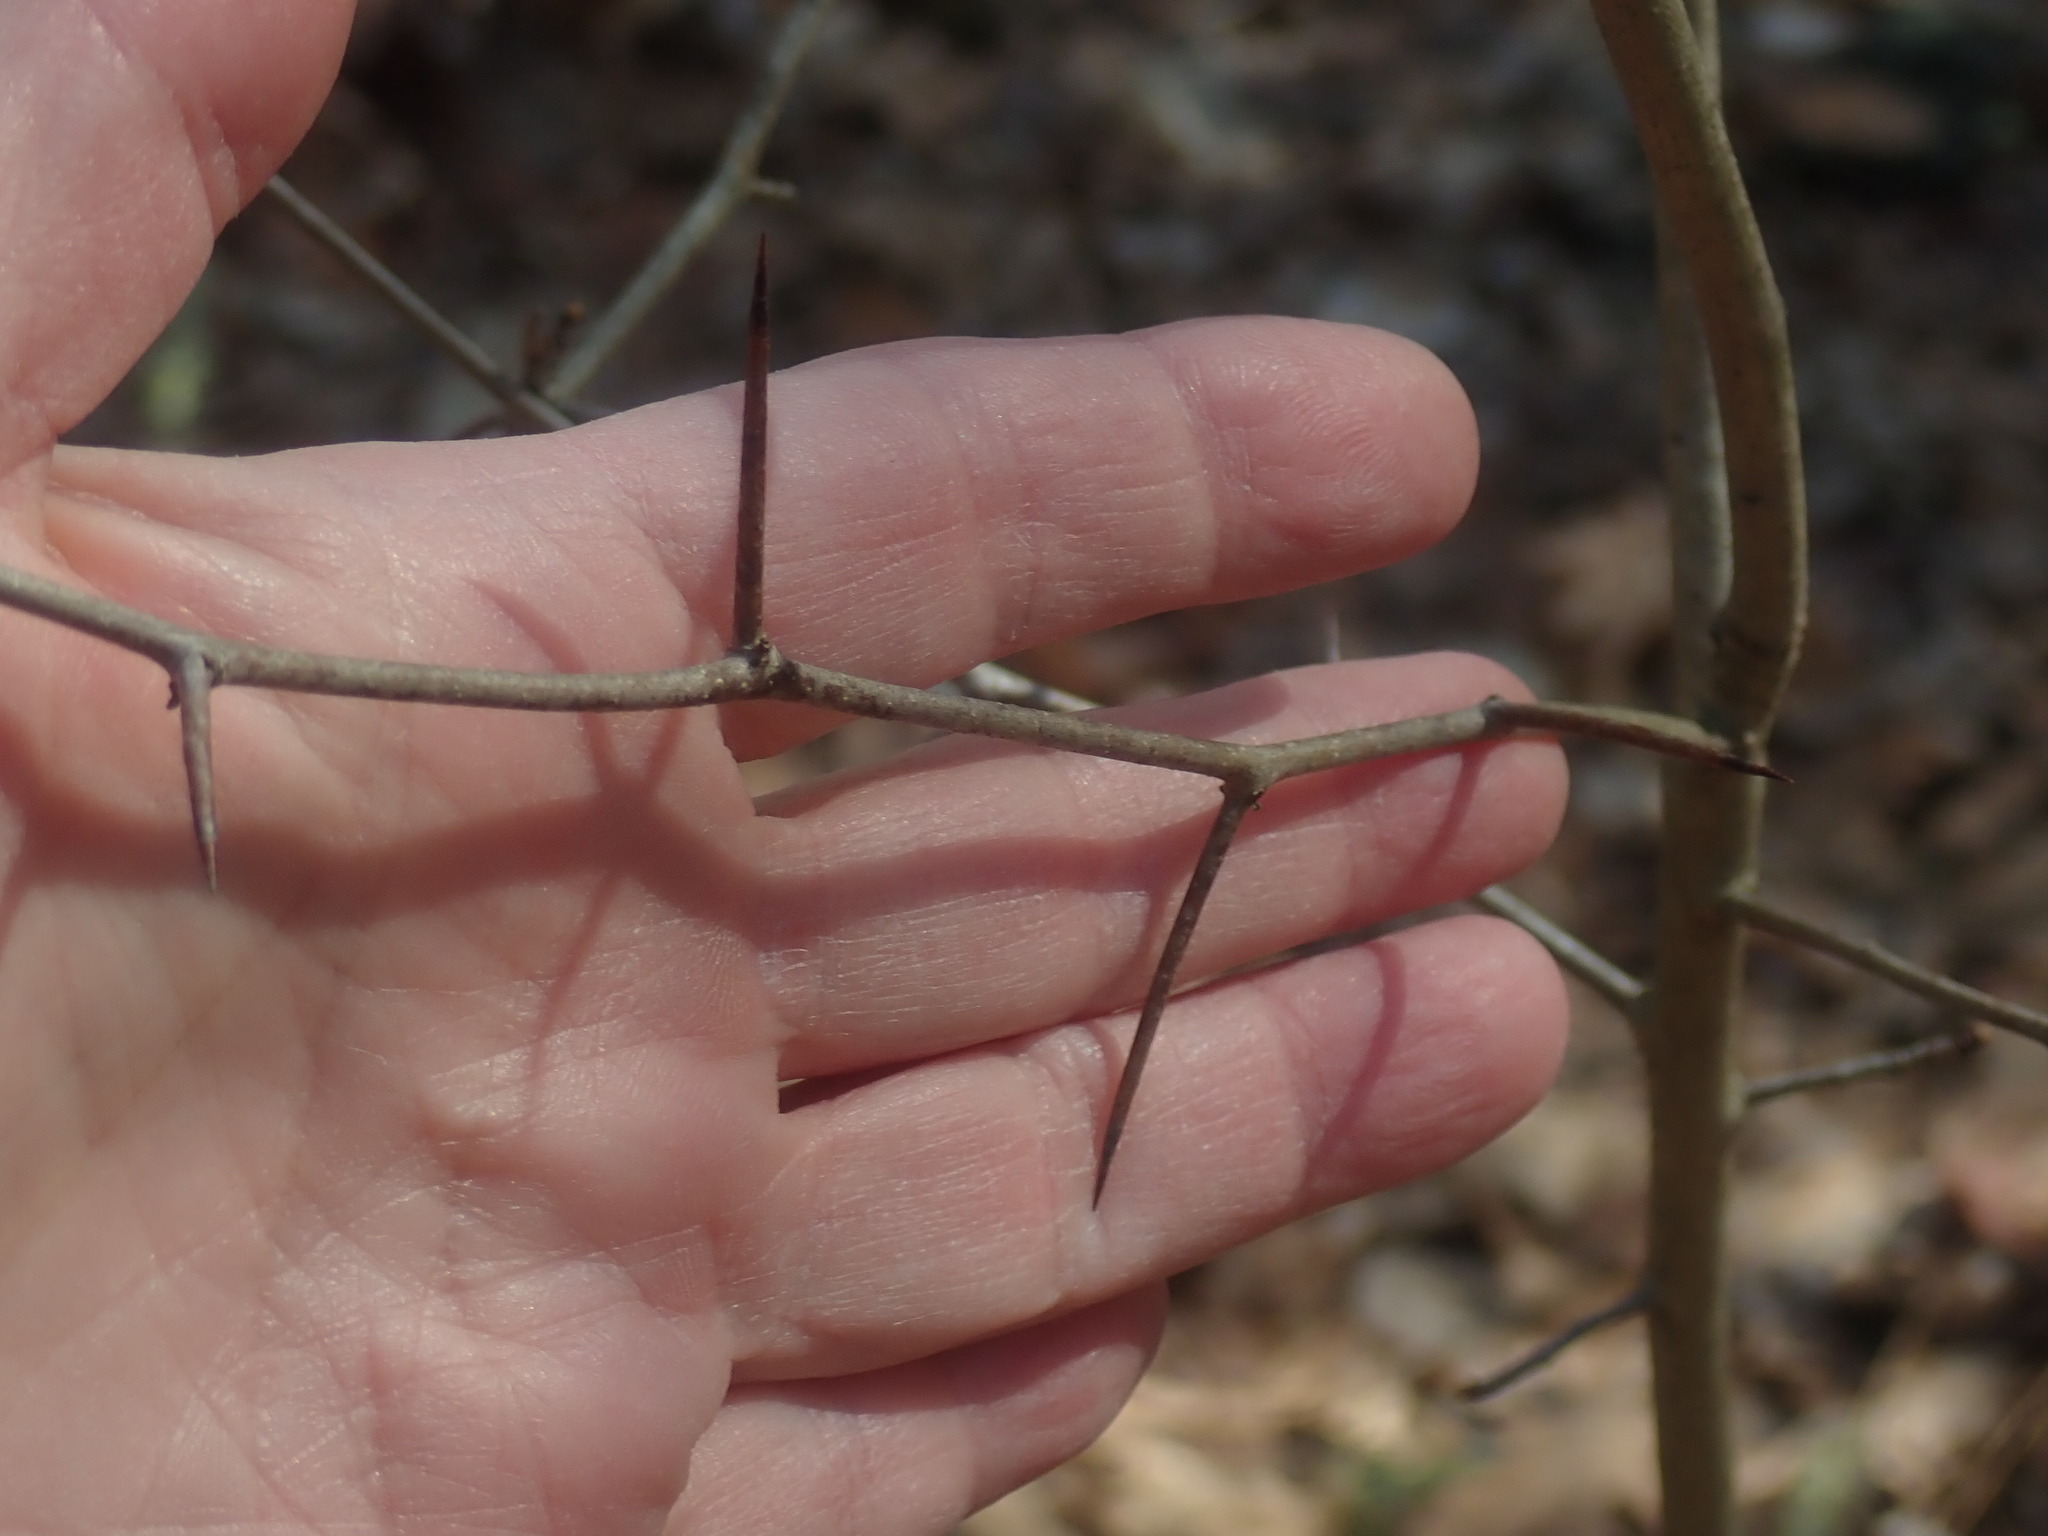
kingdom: Plantae
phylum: Tracheophyta
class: Magnoliopsida
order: Rosales
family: Rosaceae
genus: Crataegus
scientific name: Crataegus
